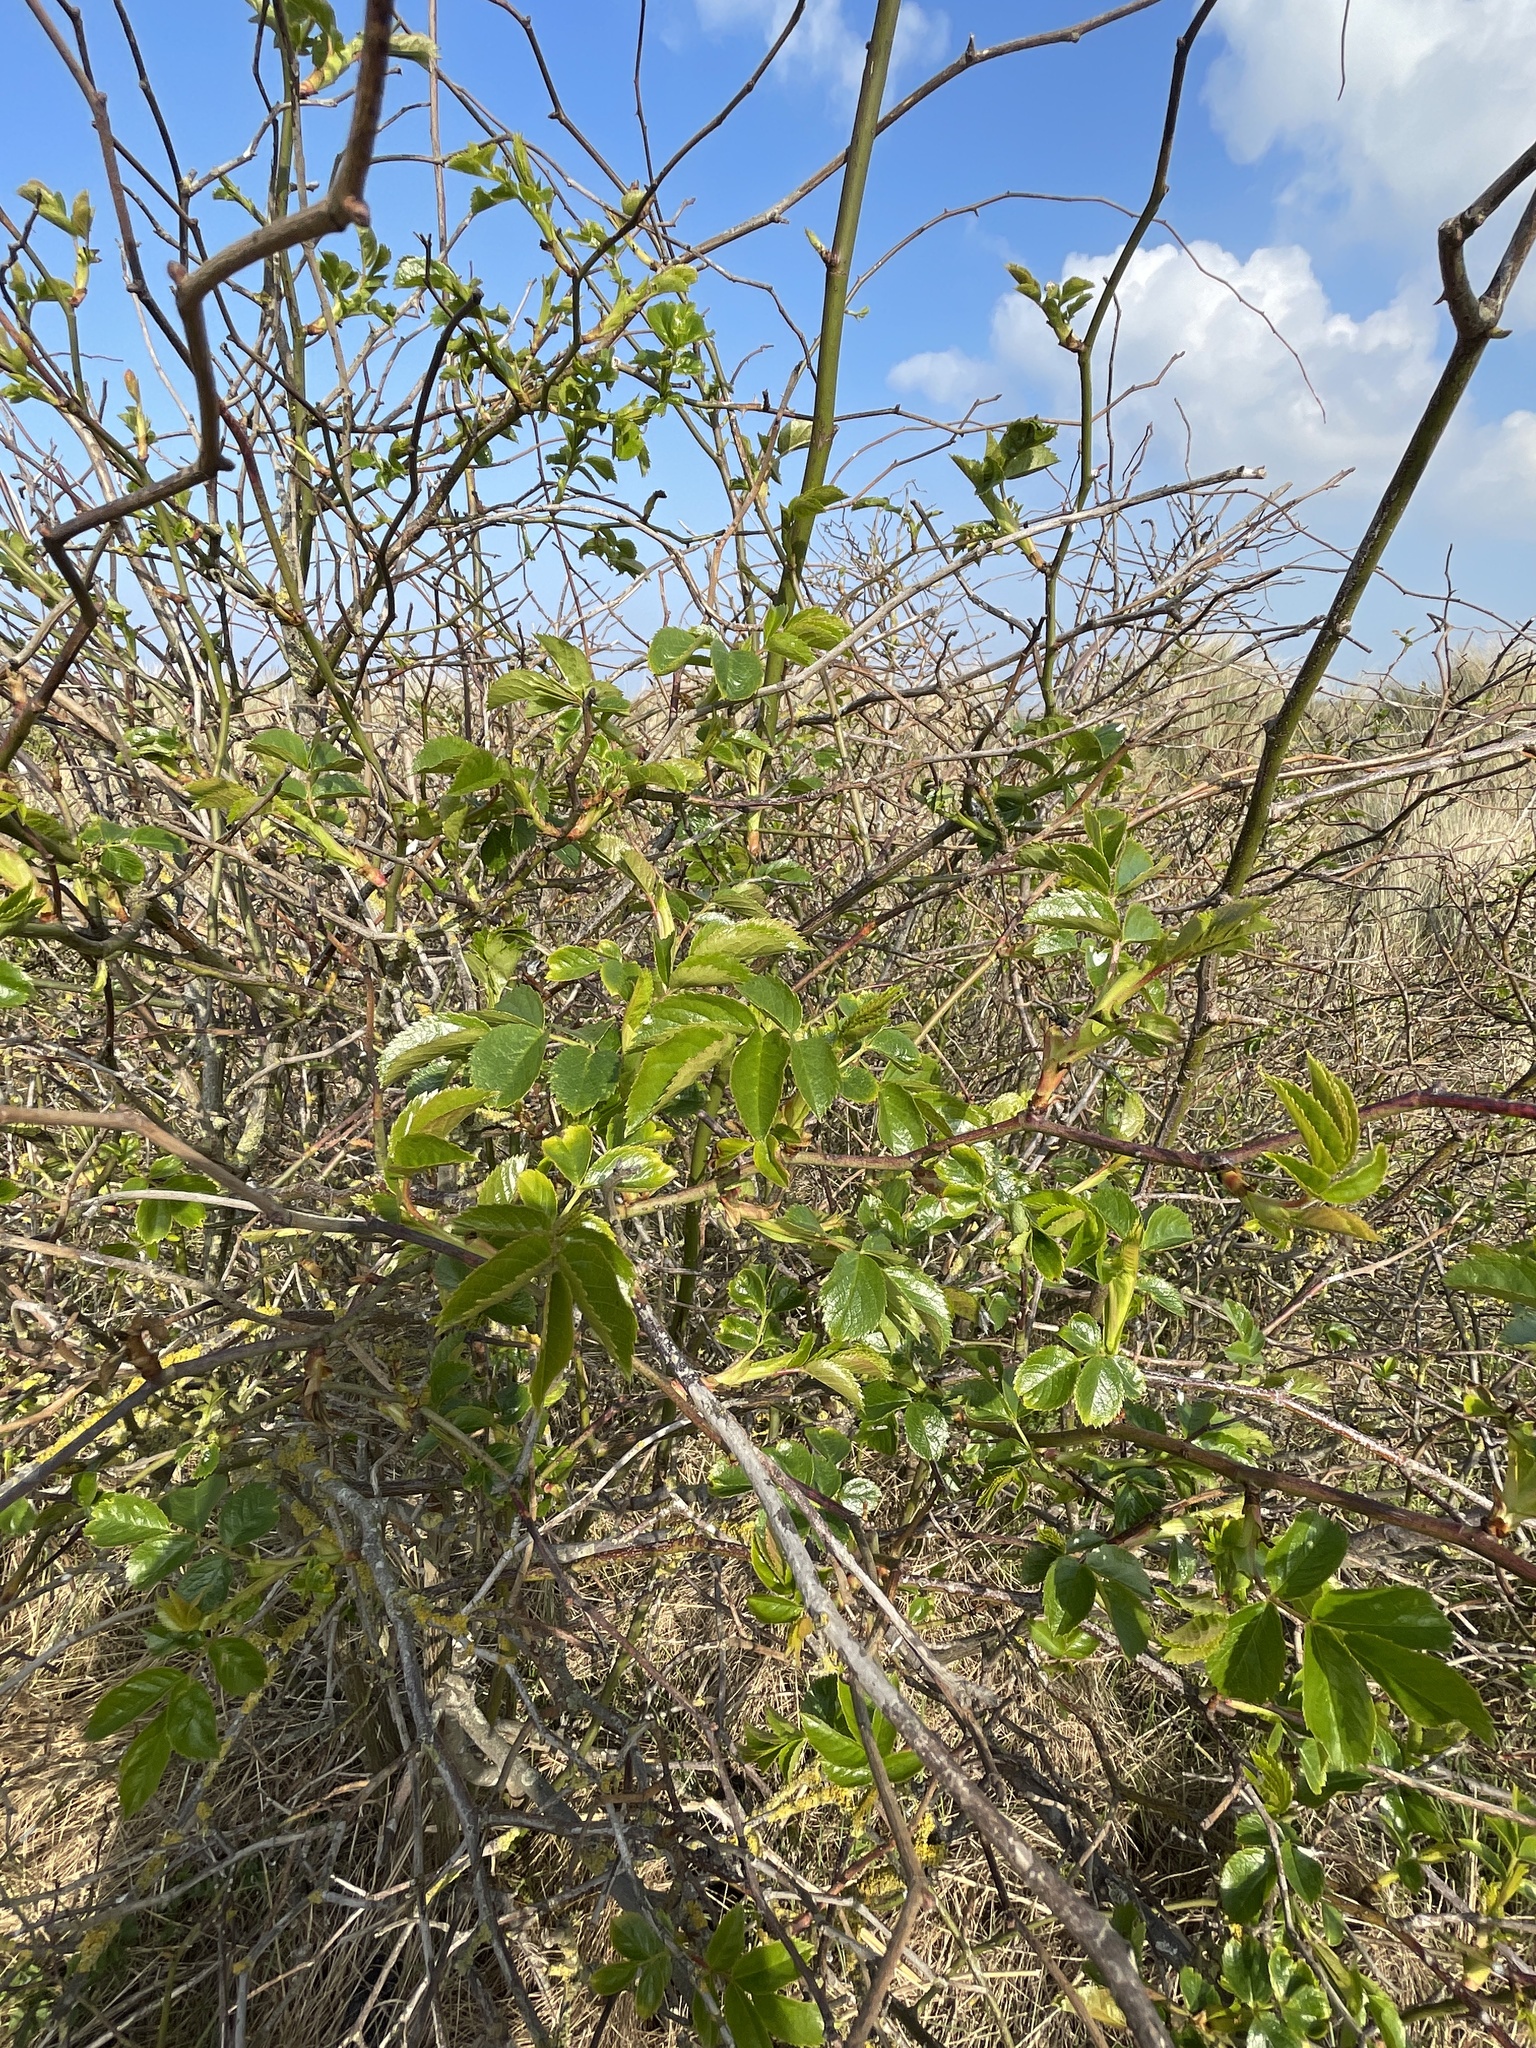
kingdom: Plantae
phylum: Tracheophyta
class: Magnoliopsida
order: Rosales
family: Rosaceae
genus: Rosa
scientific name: Rosa canina
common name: Dog rose
